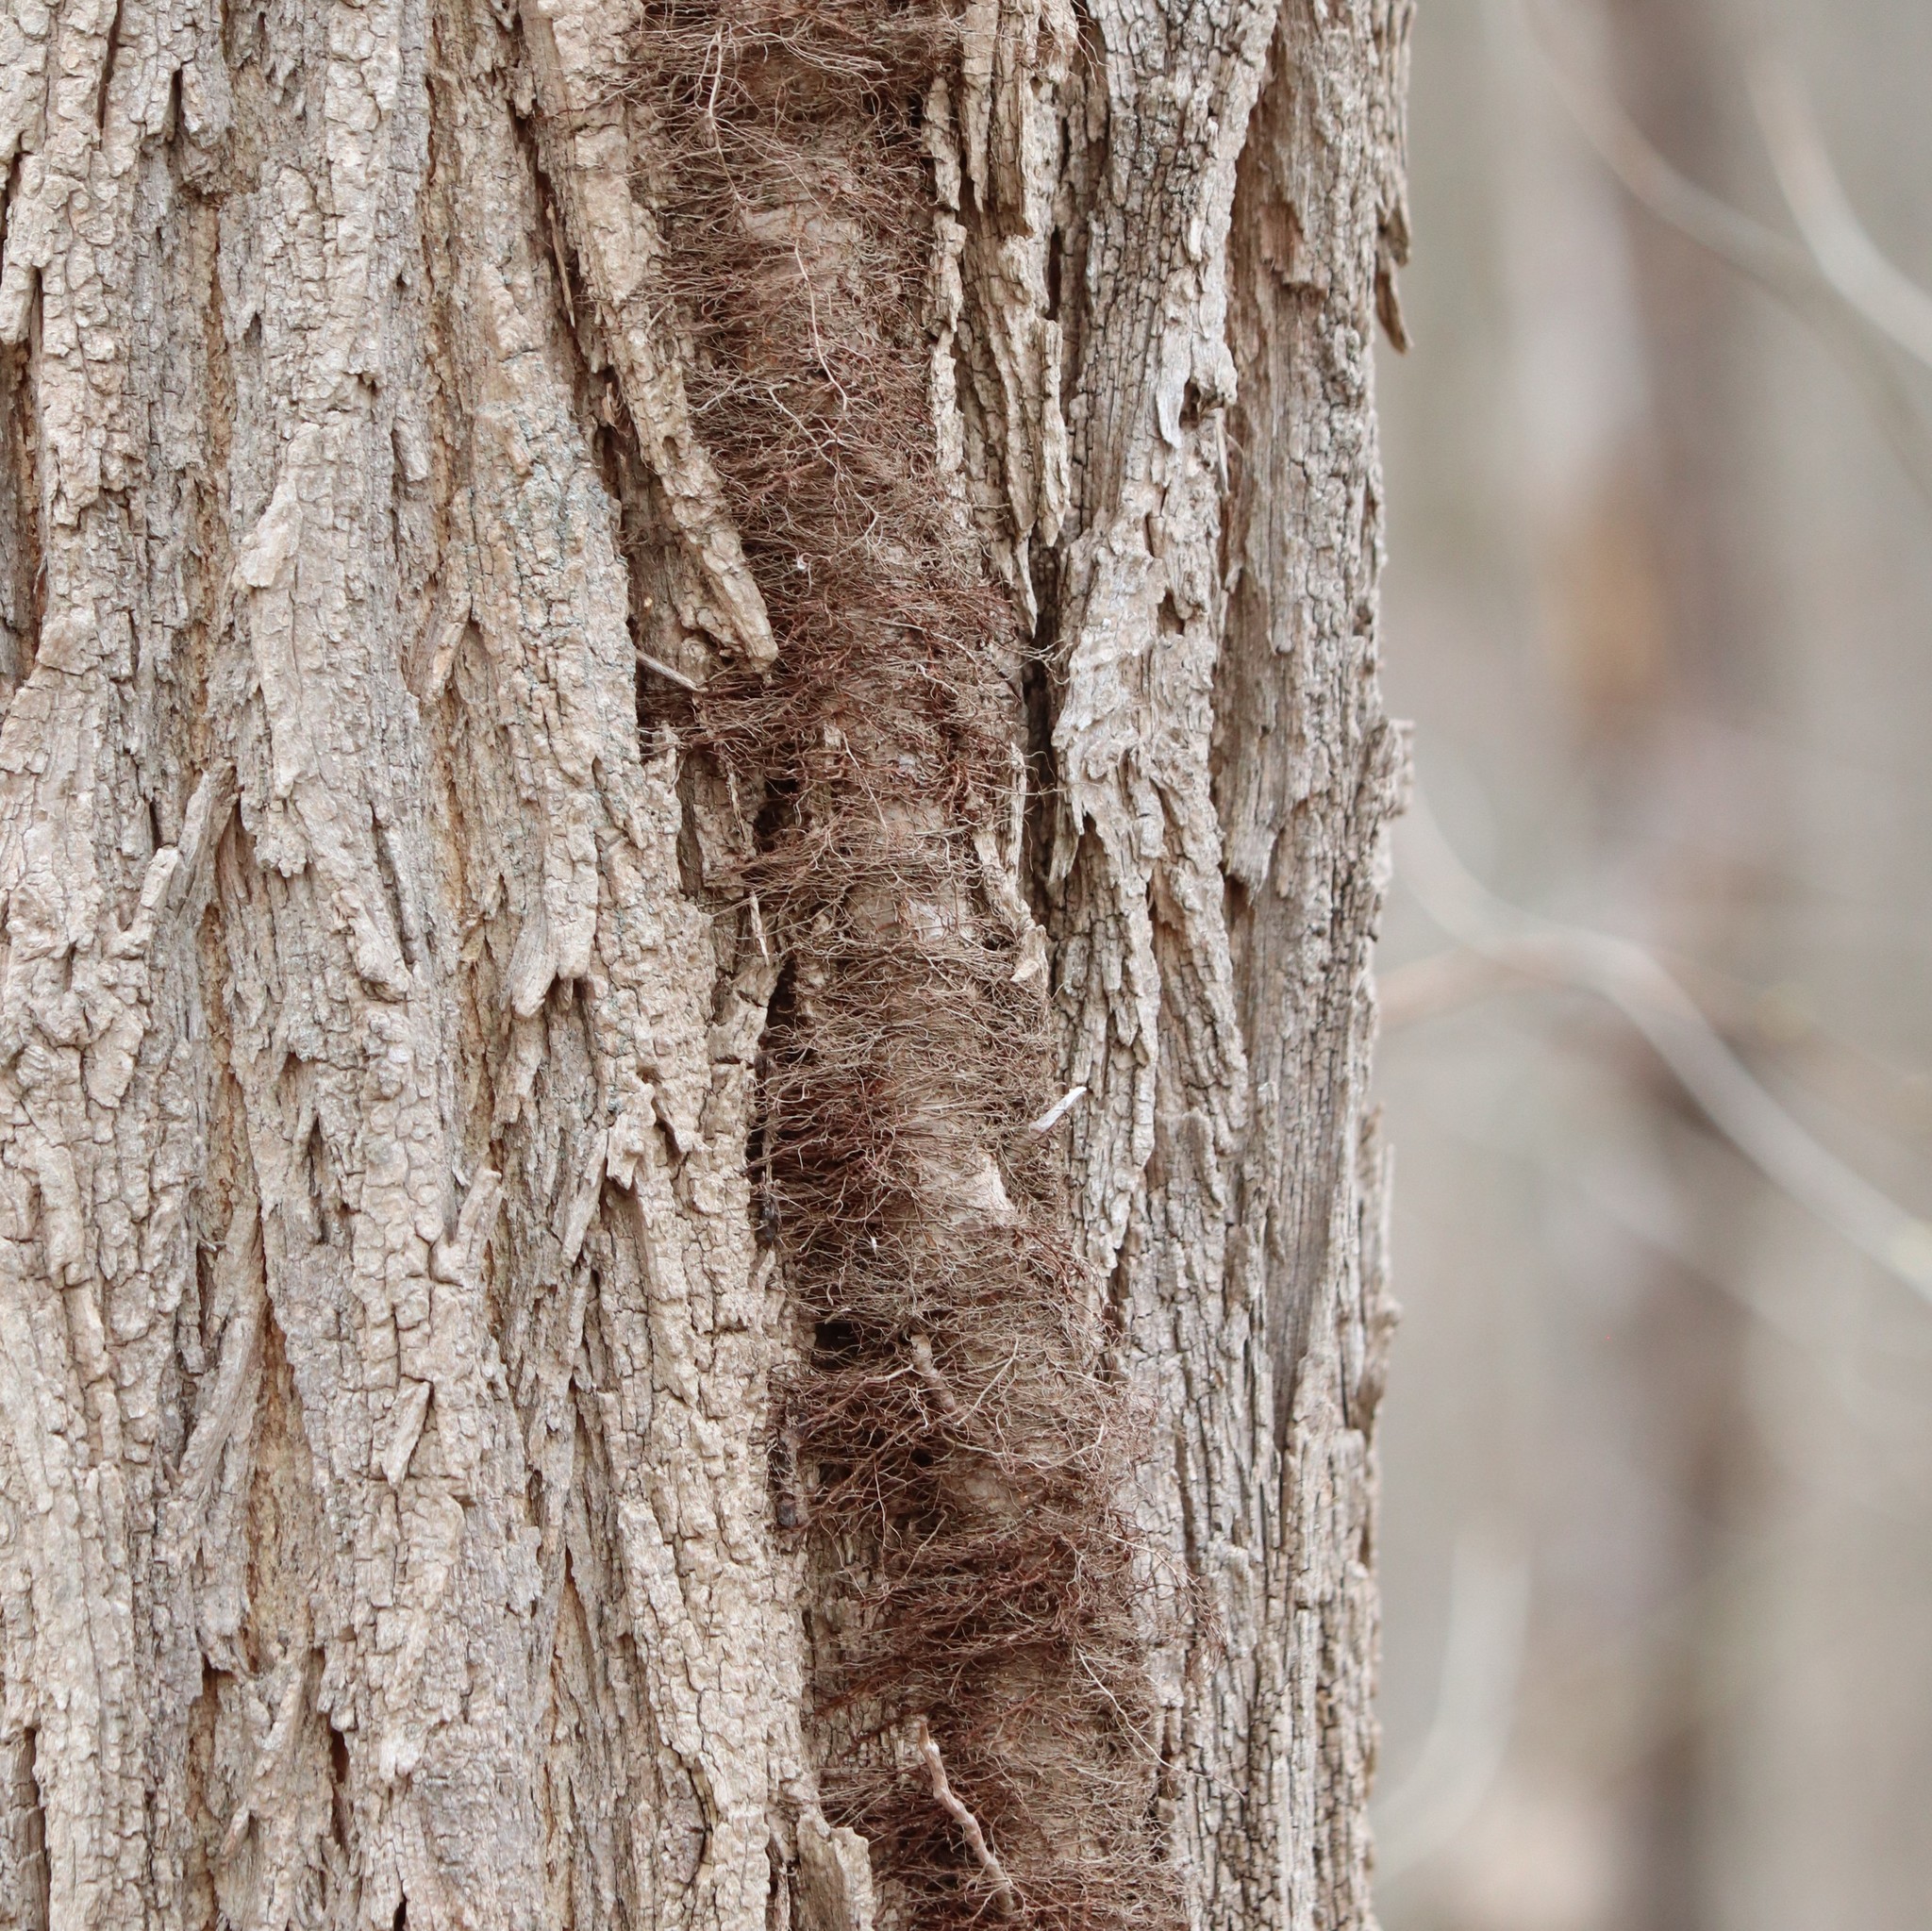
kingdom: Plantae
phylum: Tracheophyta
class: Magnoliopsida
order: Sapindales
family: Anacardiaceae
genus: Toxicodendron
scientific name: Toxicodendron radicans
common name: Poison ivy
